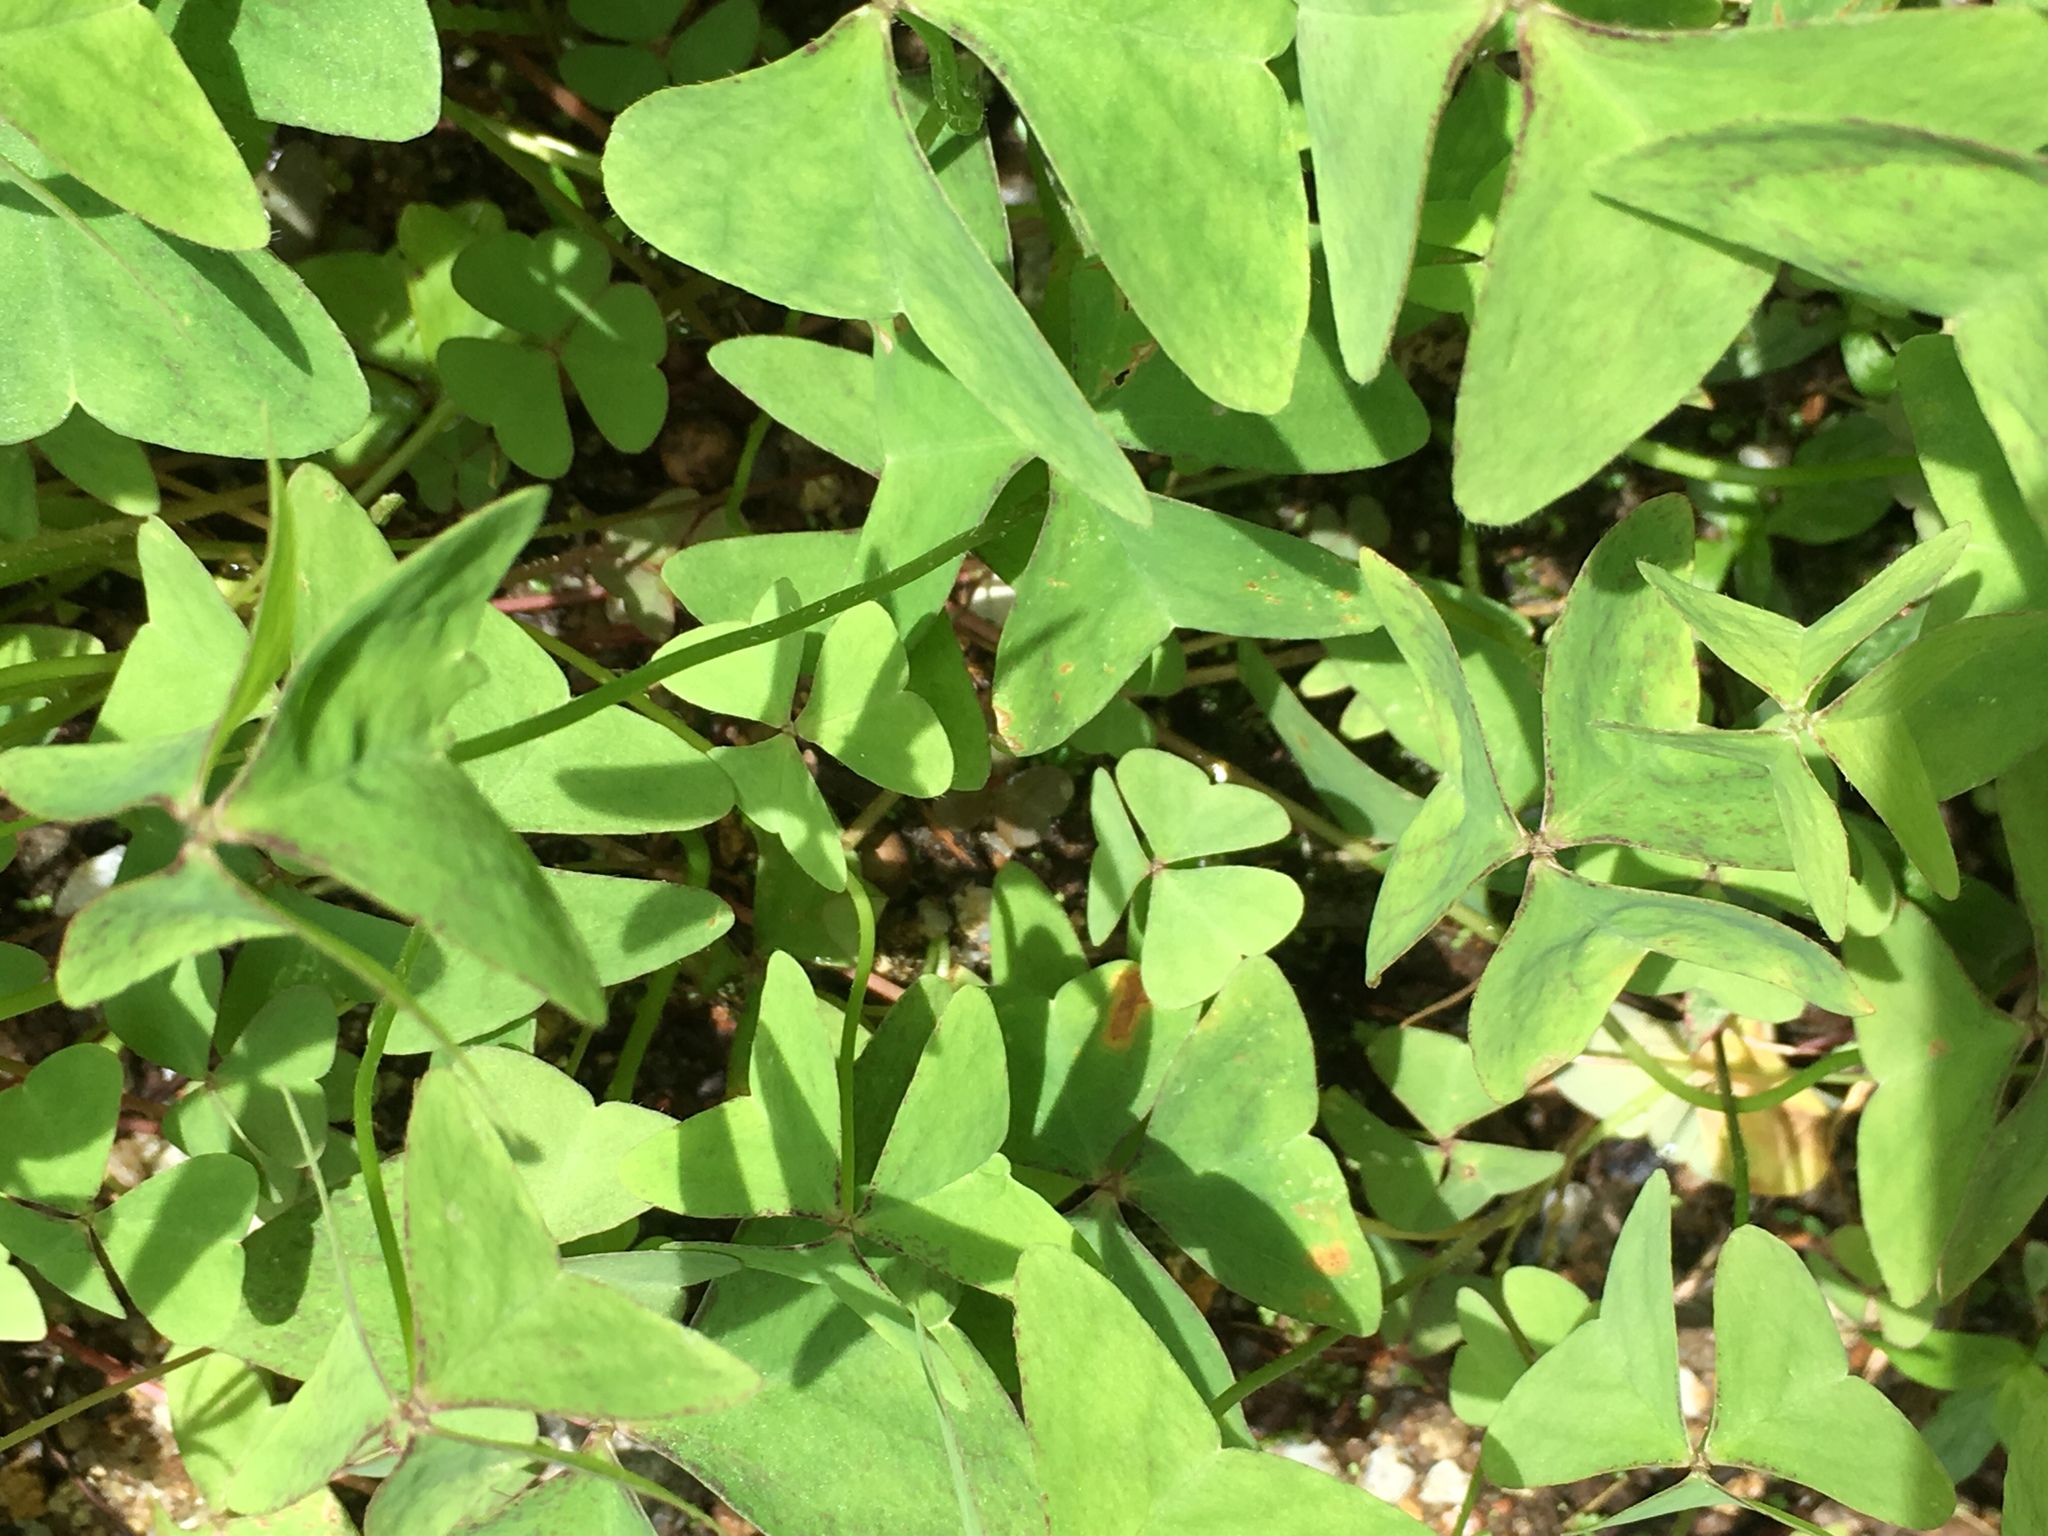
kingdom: Plantae
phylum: Tracheophyta
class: Magnoliopsida
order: Oxalidales
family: Oxalidaceae
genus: Oxalis
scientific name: Oxalis latifolia
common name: Garden pink-sorrel
